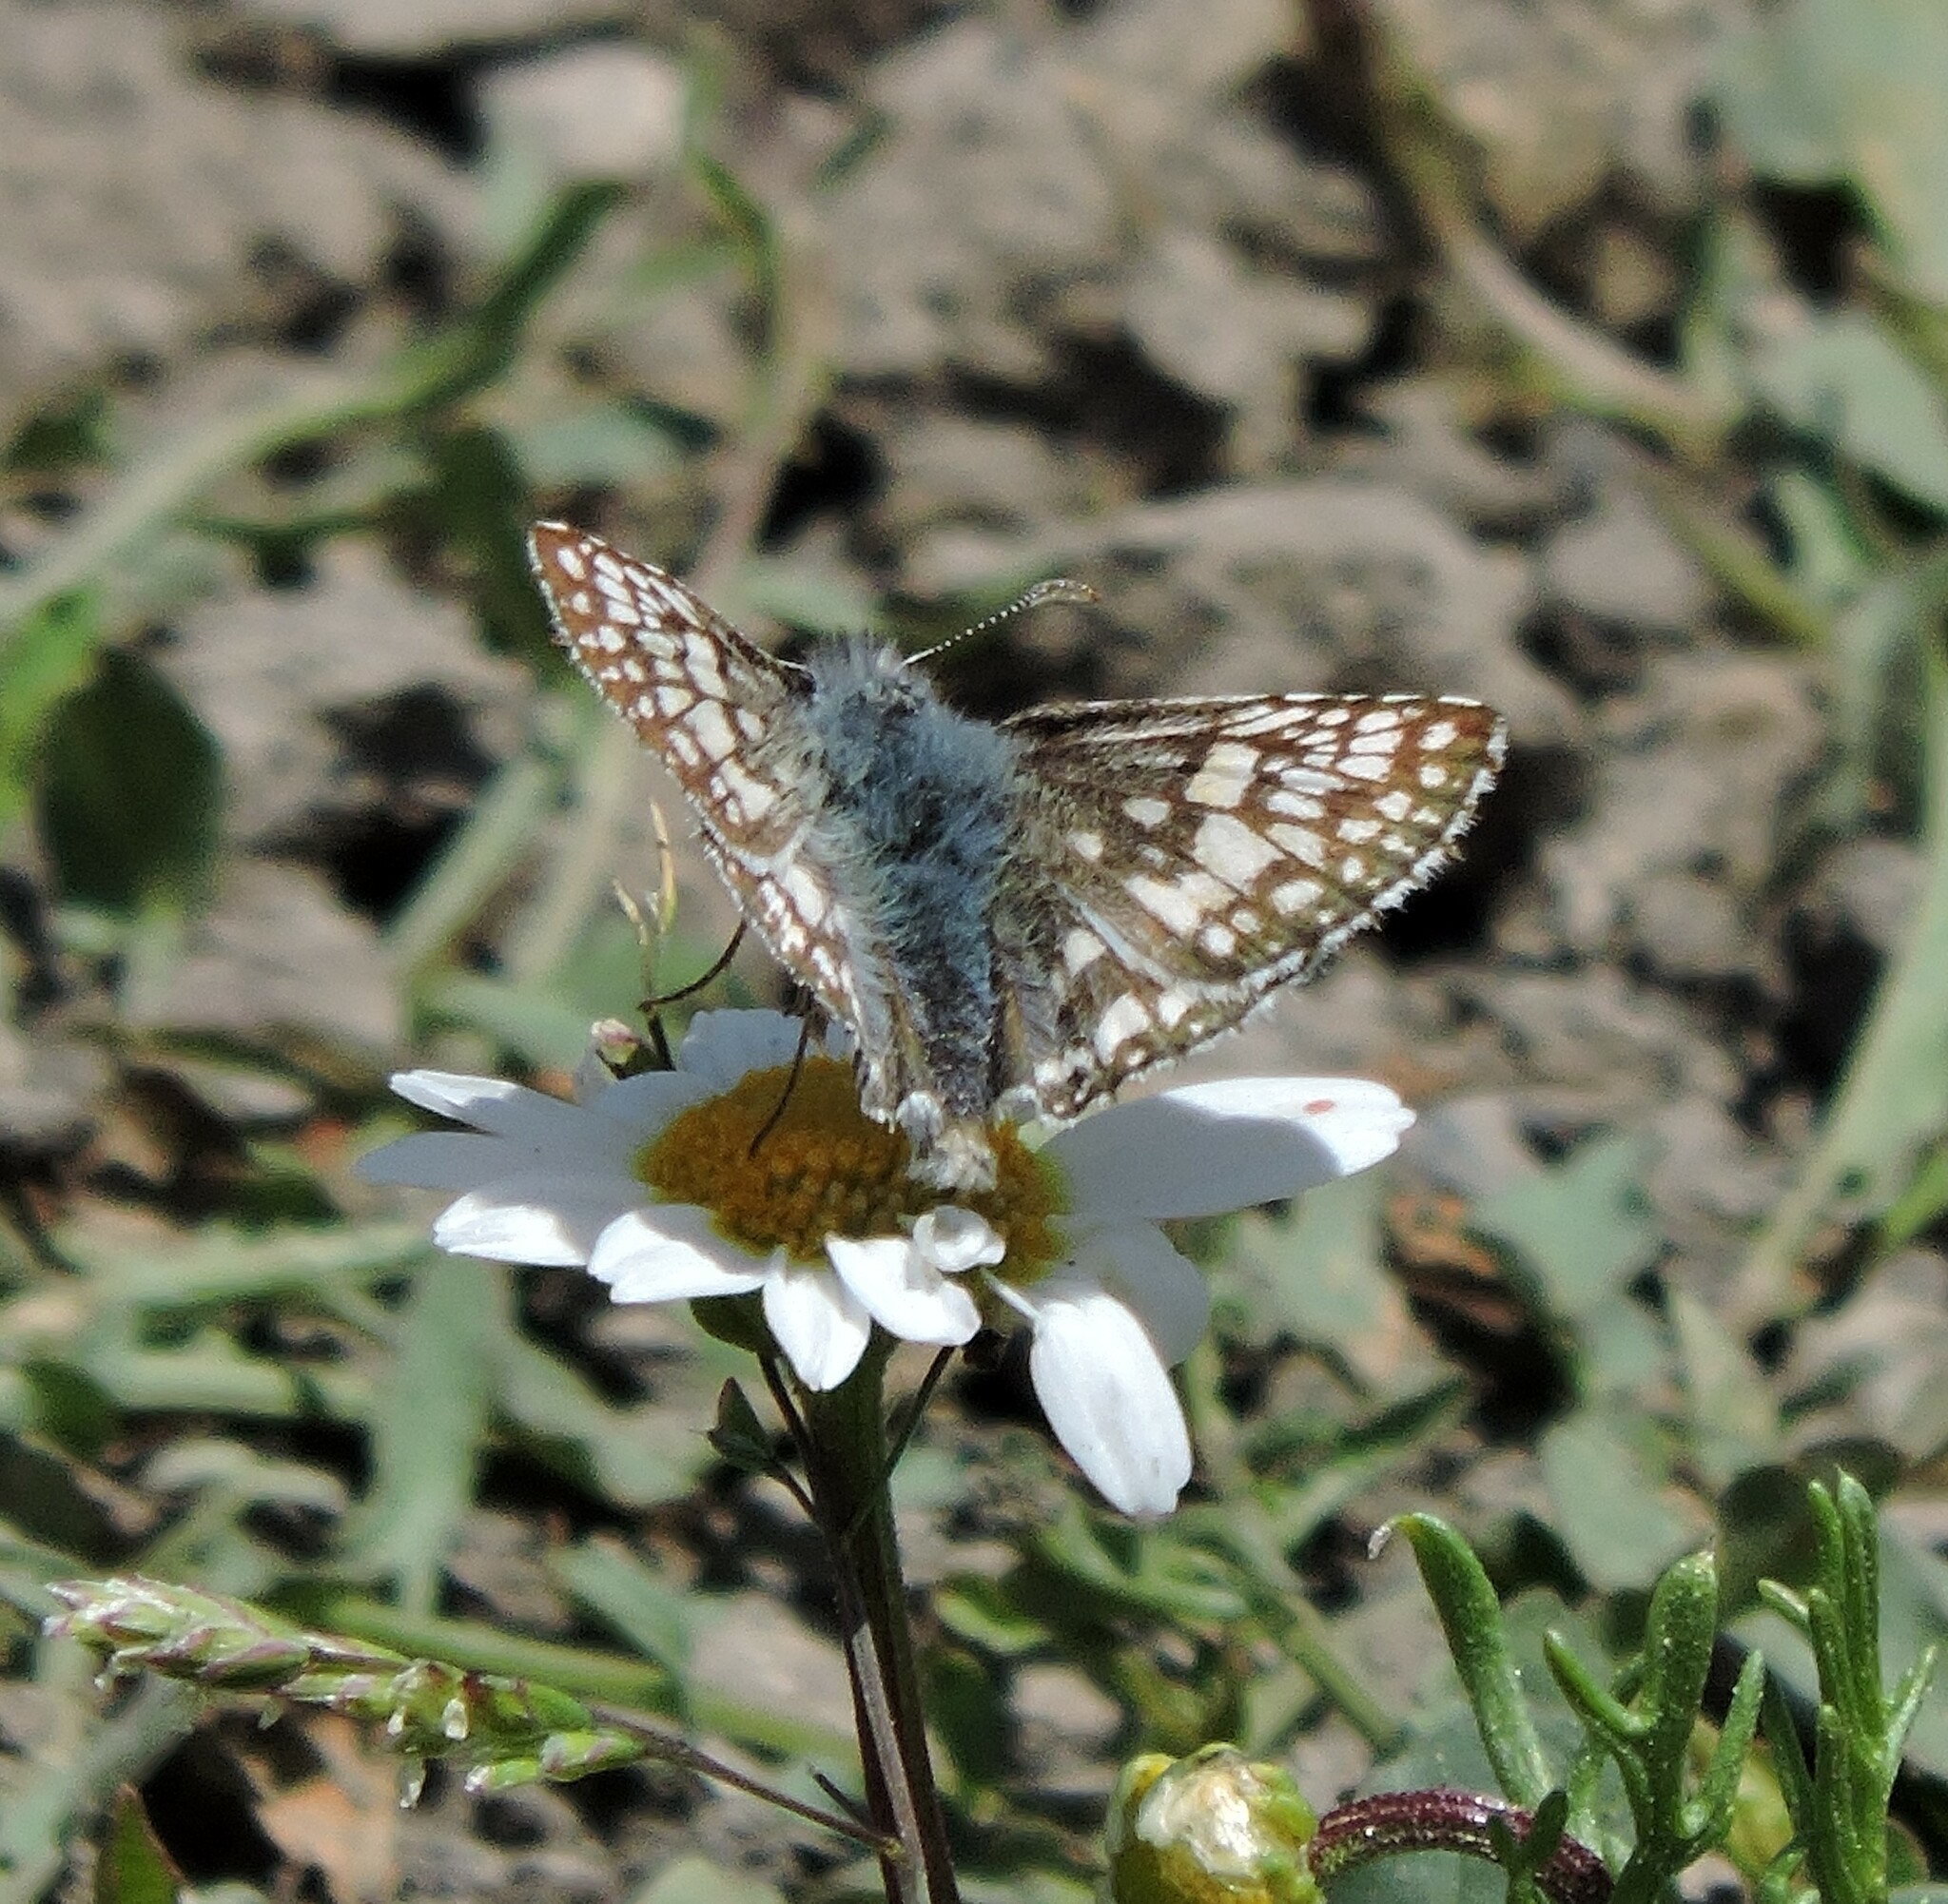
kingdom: Animalia
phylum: Arthropoda
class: Insecta
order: Lepidoptera
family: Hesperiidae
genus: Burnsius
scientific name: Burnsius communis
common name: Common checkered-skipper
